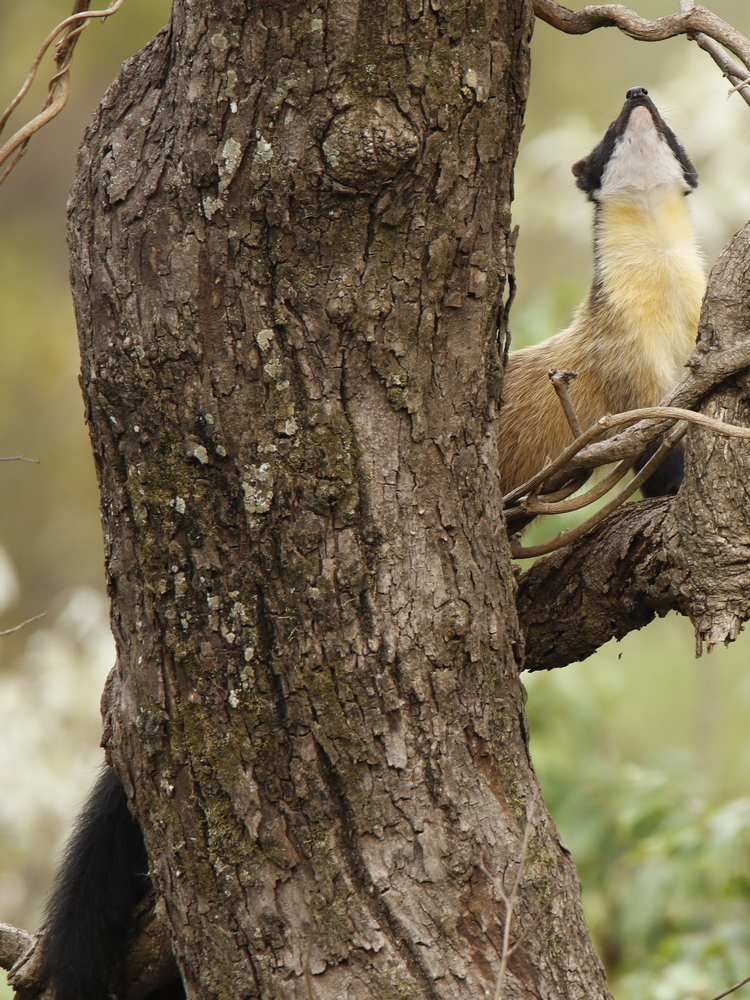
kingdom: Animalia
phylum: Chordata
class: Mammalia
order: Carnivora
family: Mustelidae
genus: Martes
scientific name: Martes flavigula
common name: Yellow-throated marten
